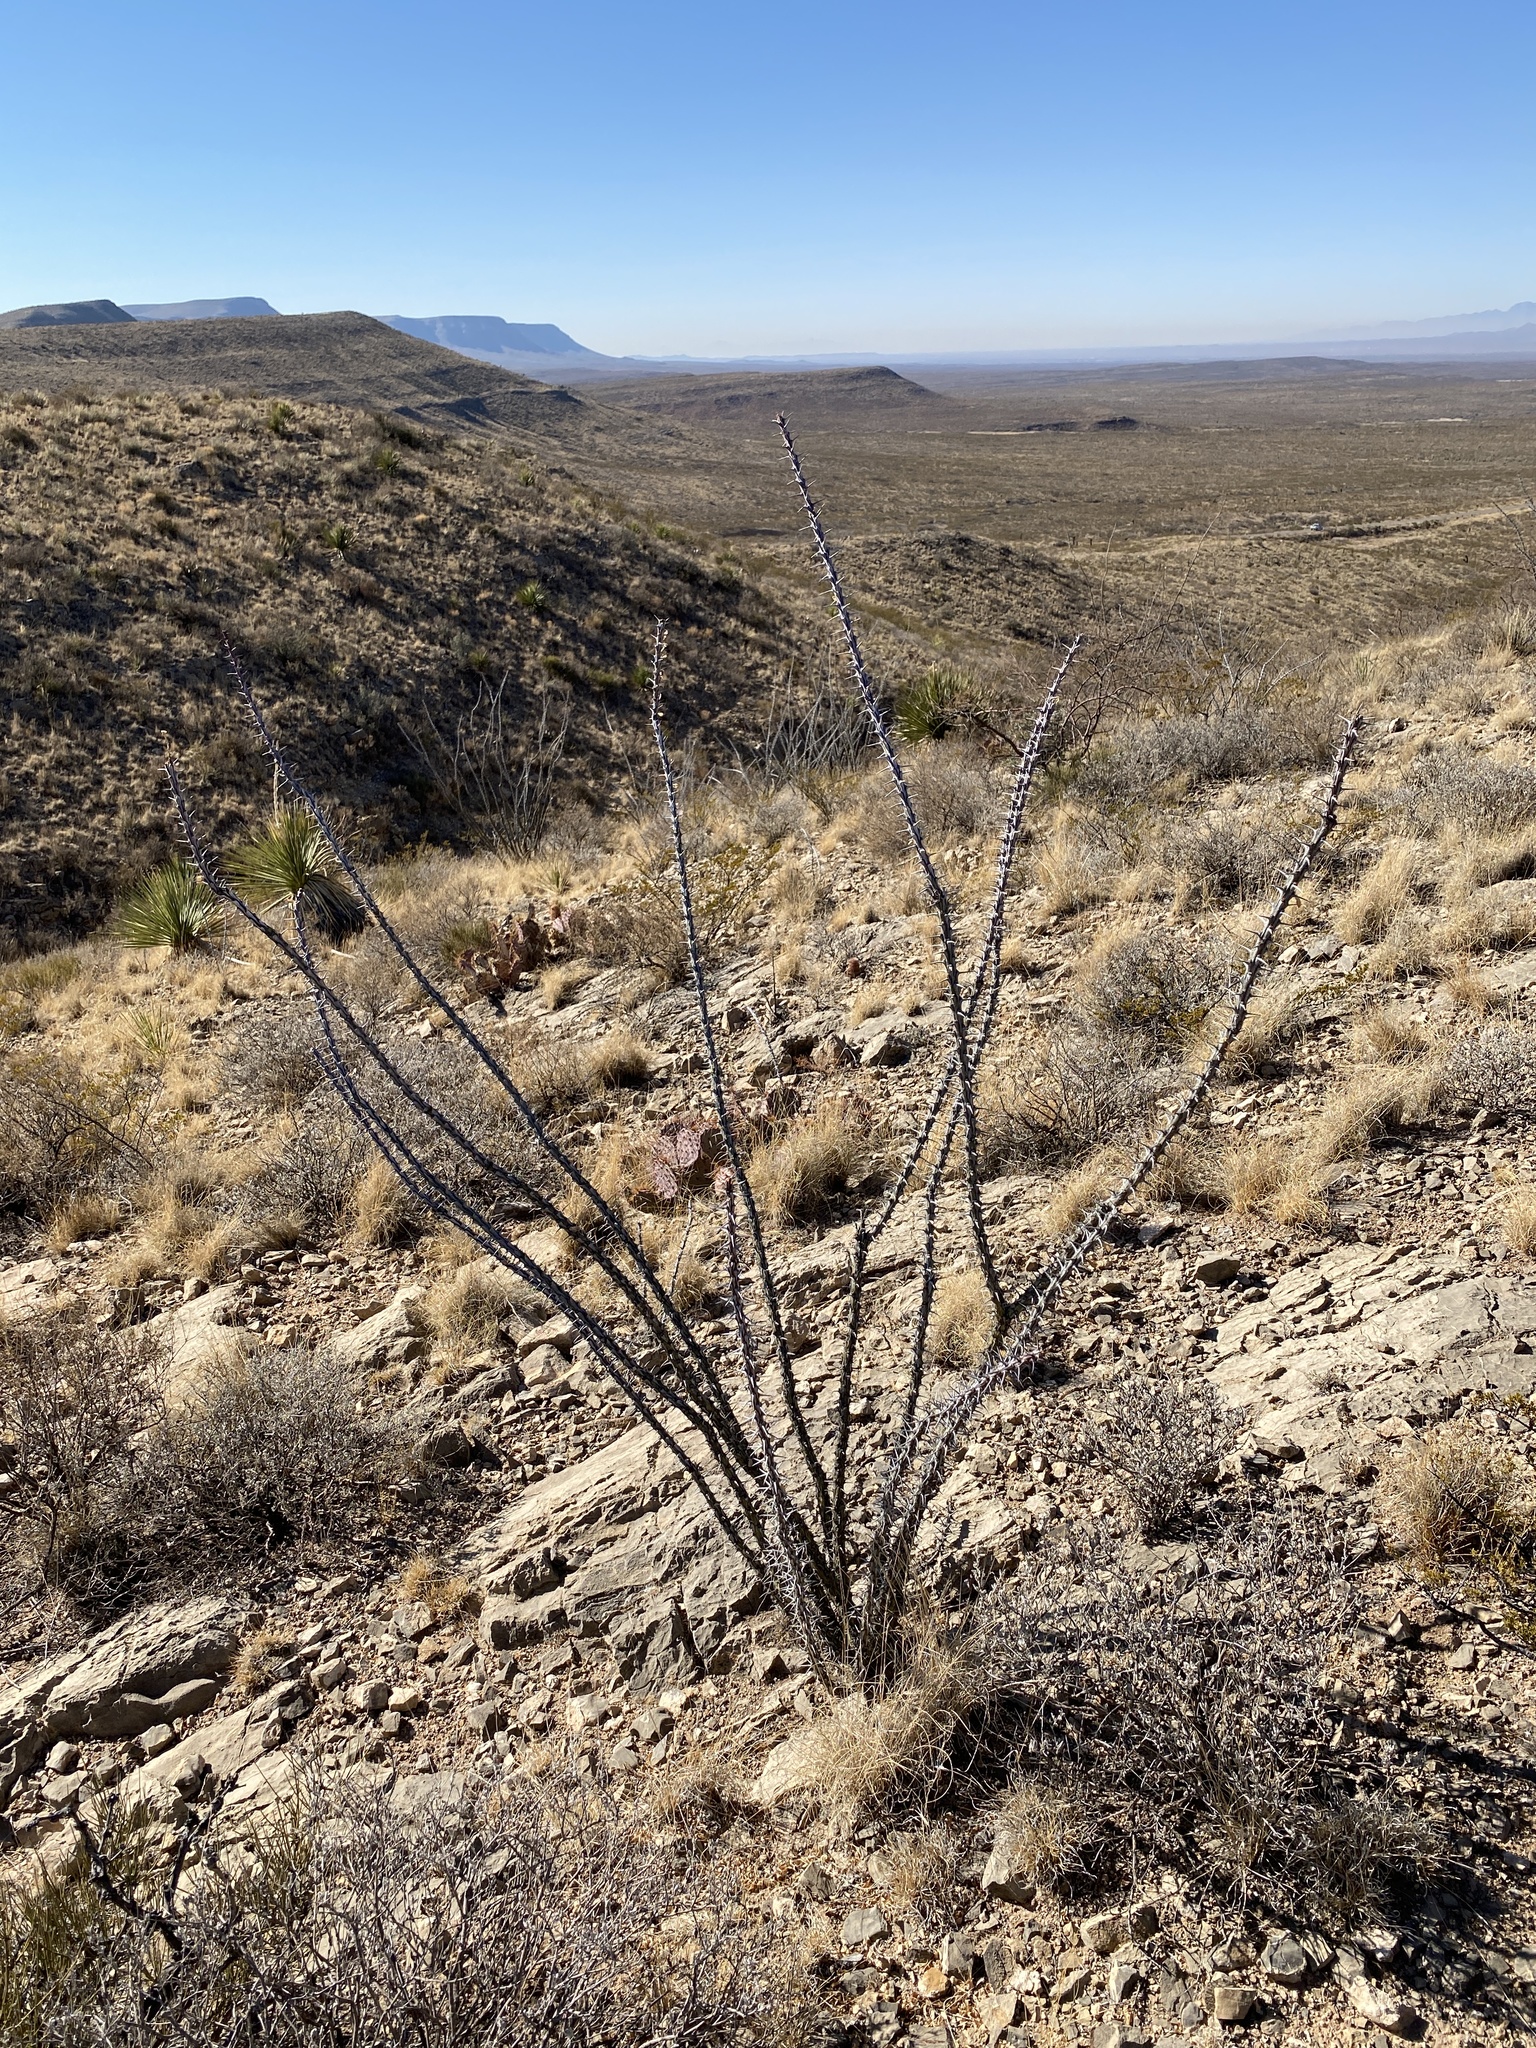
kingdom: Plantae
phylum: Tracheophyta
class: Magnoliopsida
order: Ericales
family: Fouquieriaceae
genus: Fouquieria
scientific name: Fouquieria splendens
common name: Vine-cactus
